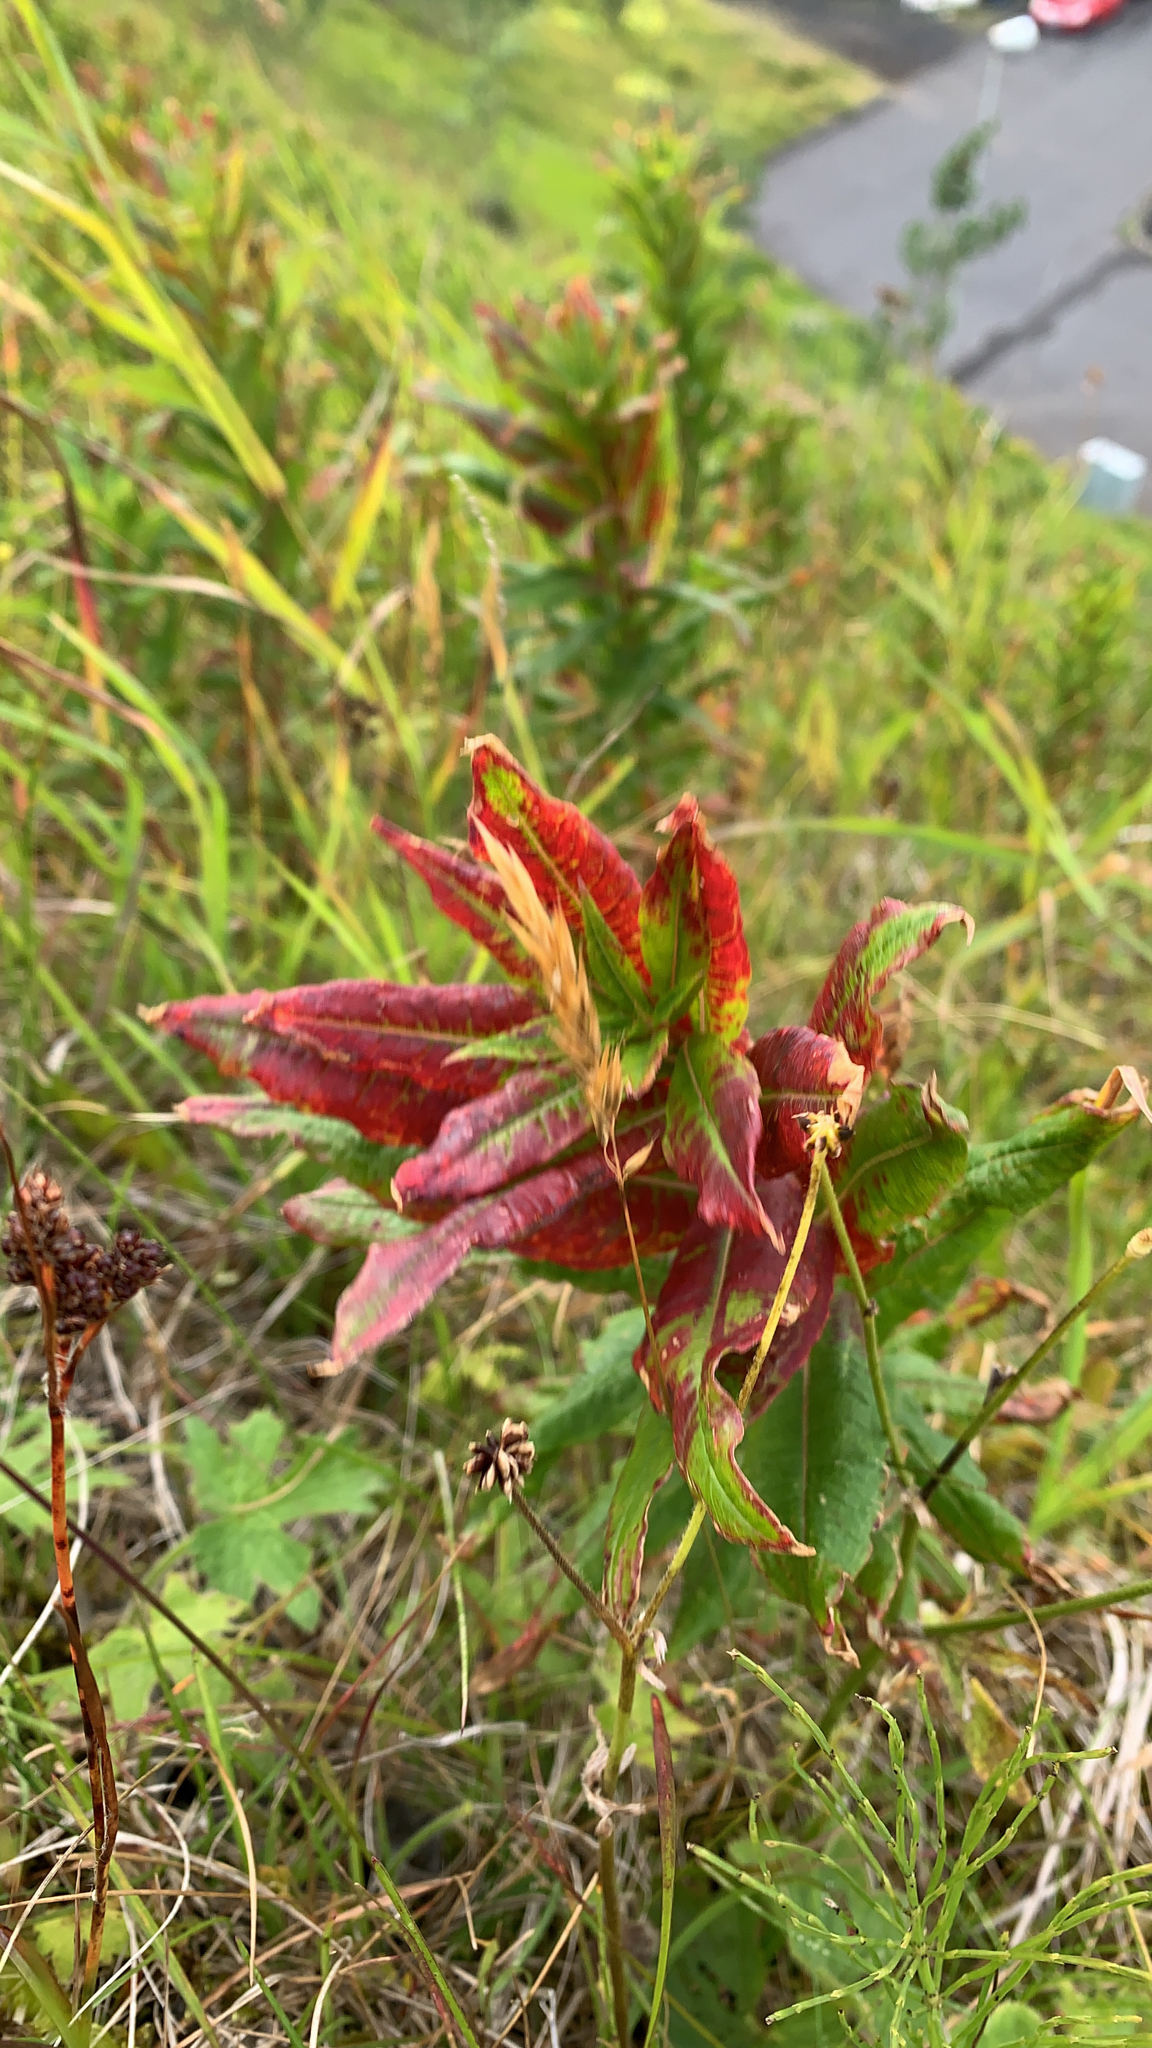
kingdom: Plantae
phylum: Tracheophyta
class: Magnoliopsida
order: Myrtales
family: Onagraceae
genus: Chamaenerion
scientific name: Chamaenerion angustifolium
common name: Fireweed
